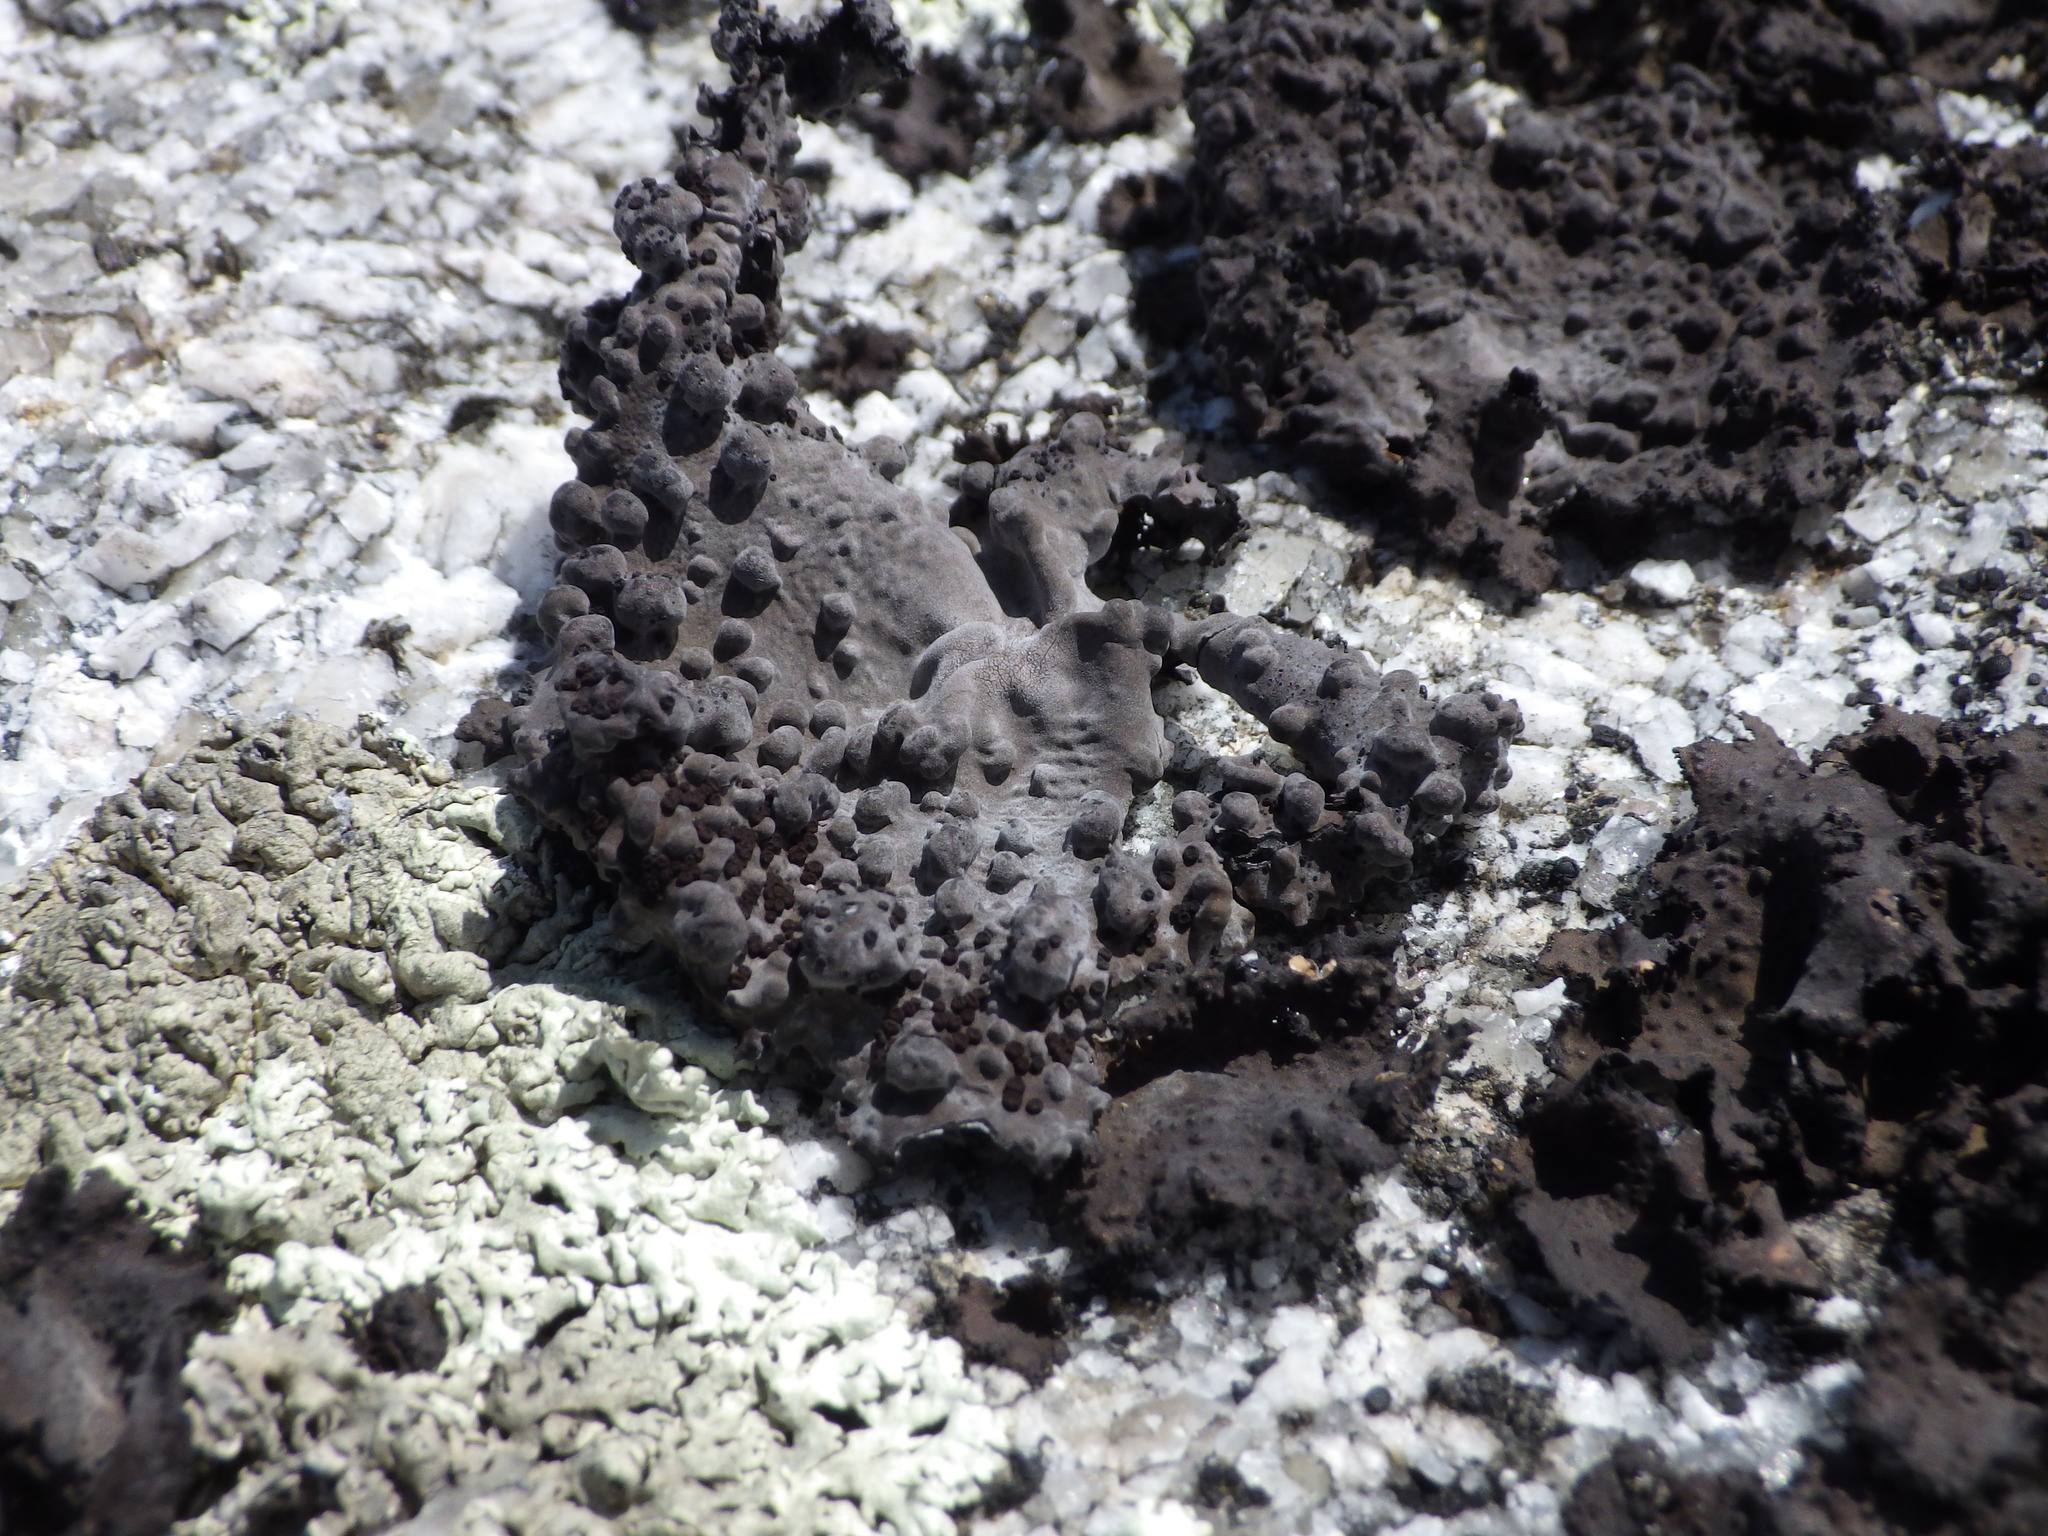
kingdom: Fungi
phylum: Ascomycota
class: Lecanoromycetes
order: Umbilicariales
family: Umbilicariaceae
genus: Lasallia
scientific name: Lasallia papulosa
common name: Common toadskin lichen
